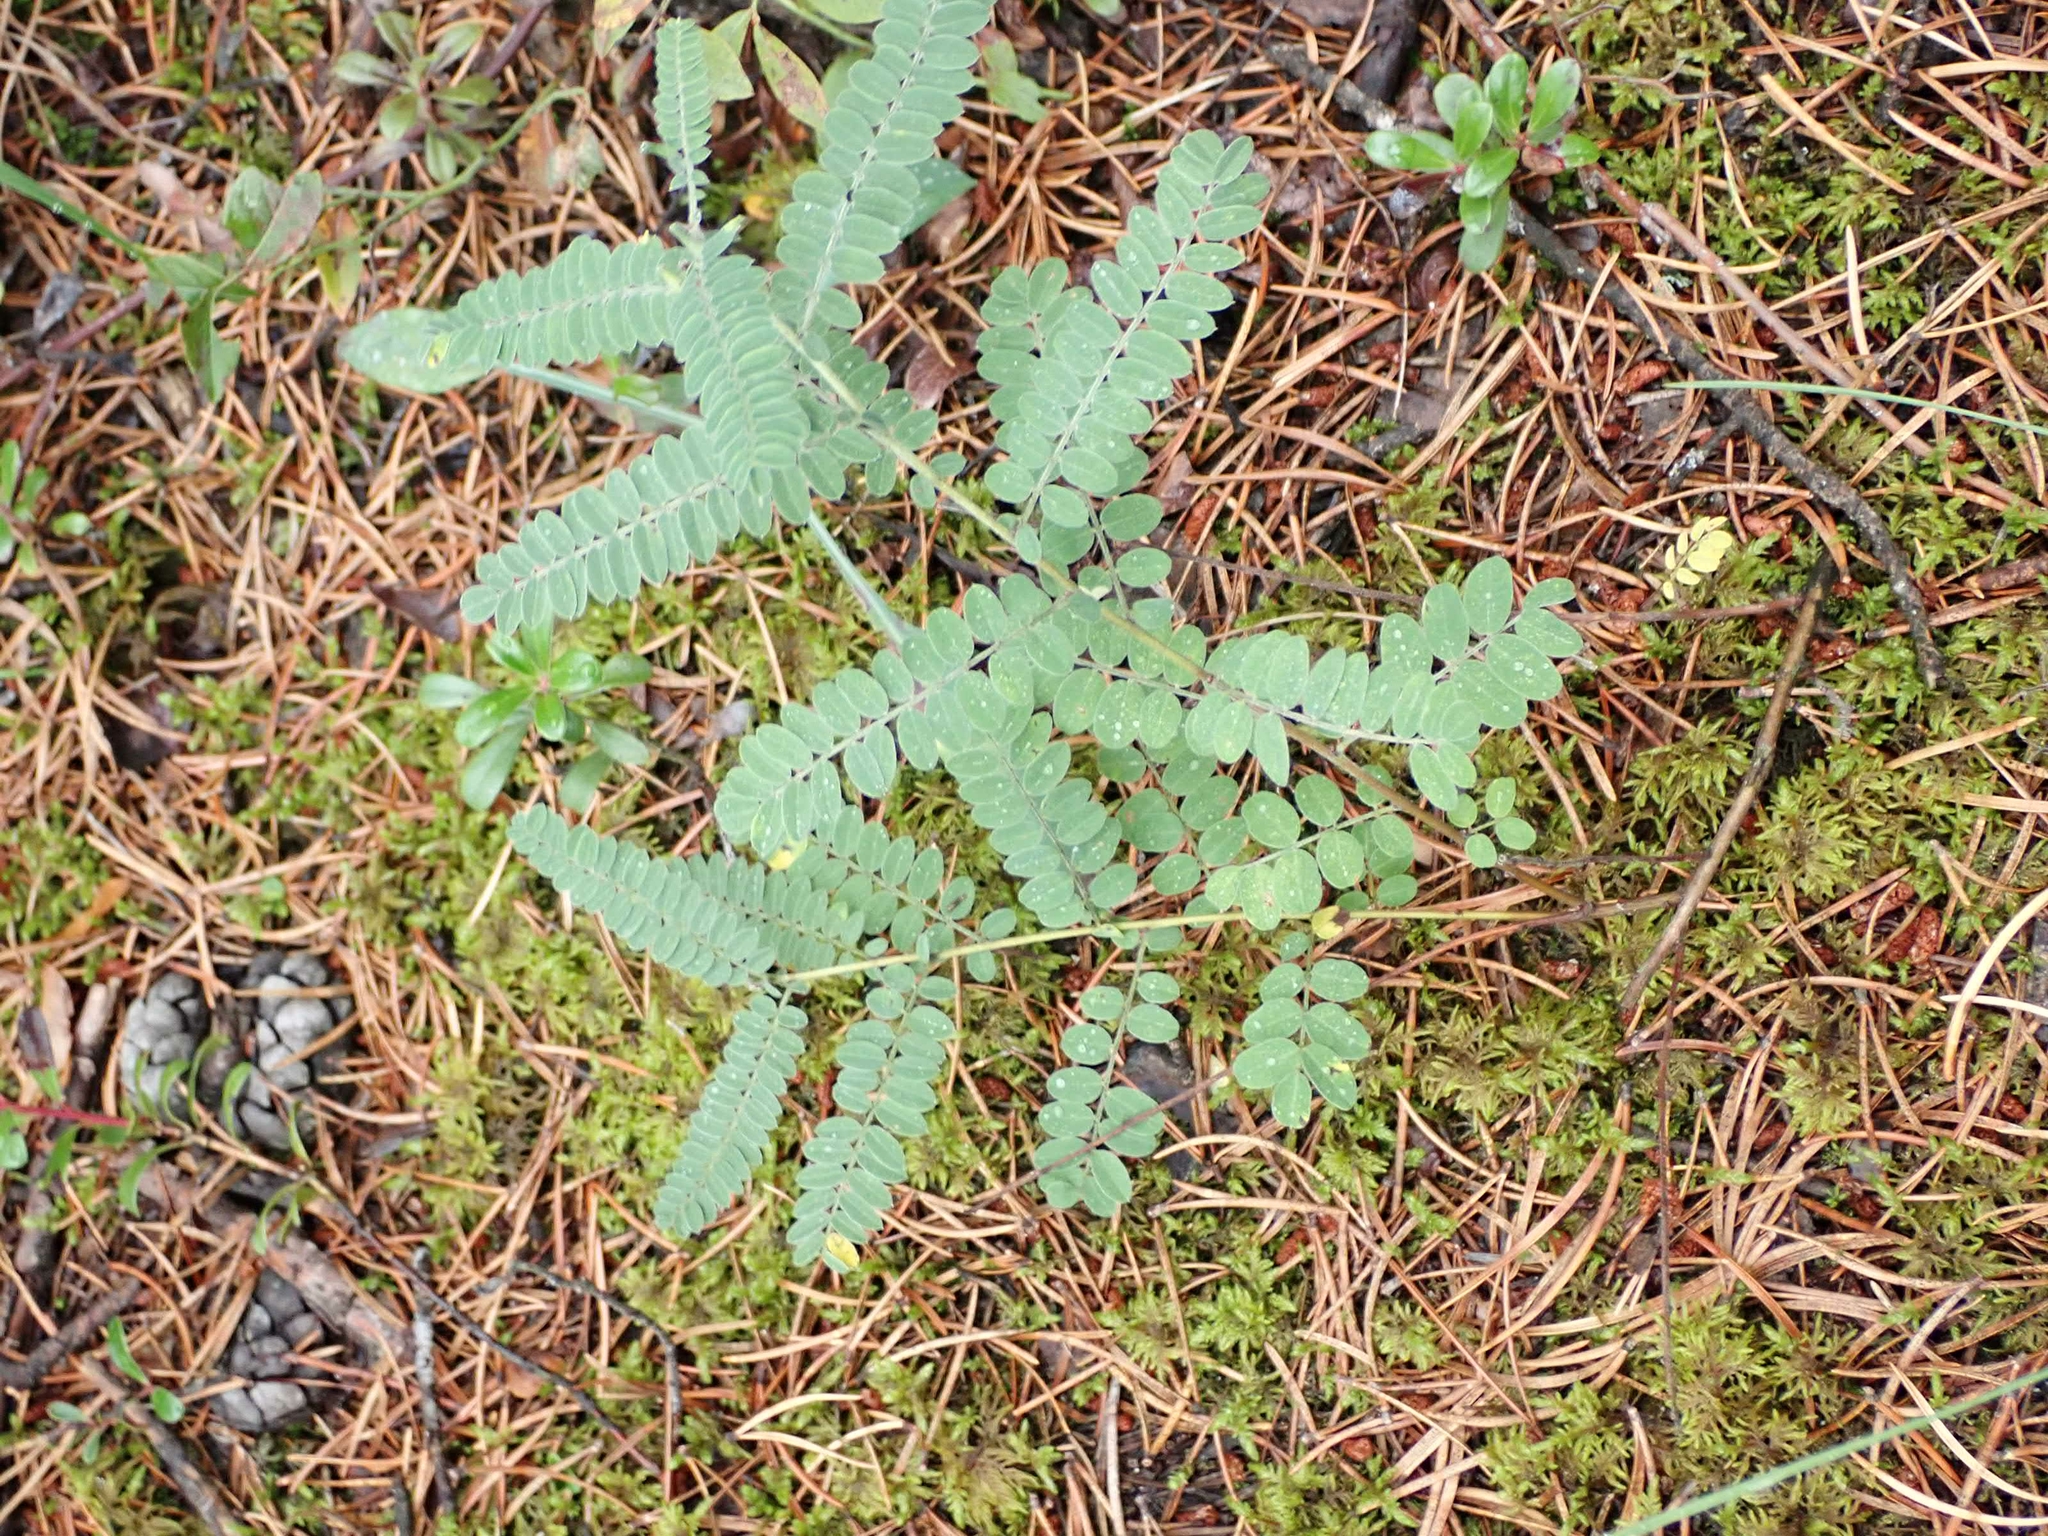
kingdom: Plantae
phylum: Tracheophyta
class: Magnoliopsida
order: Fabales
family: Fabaceae
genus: Amorpha
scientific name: Amorpha canescens
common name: Leadplant
